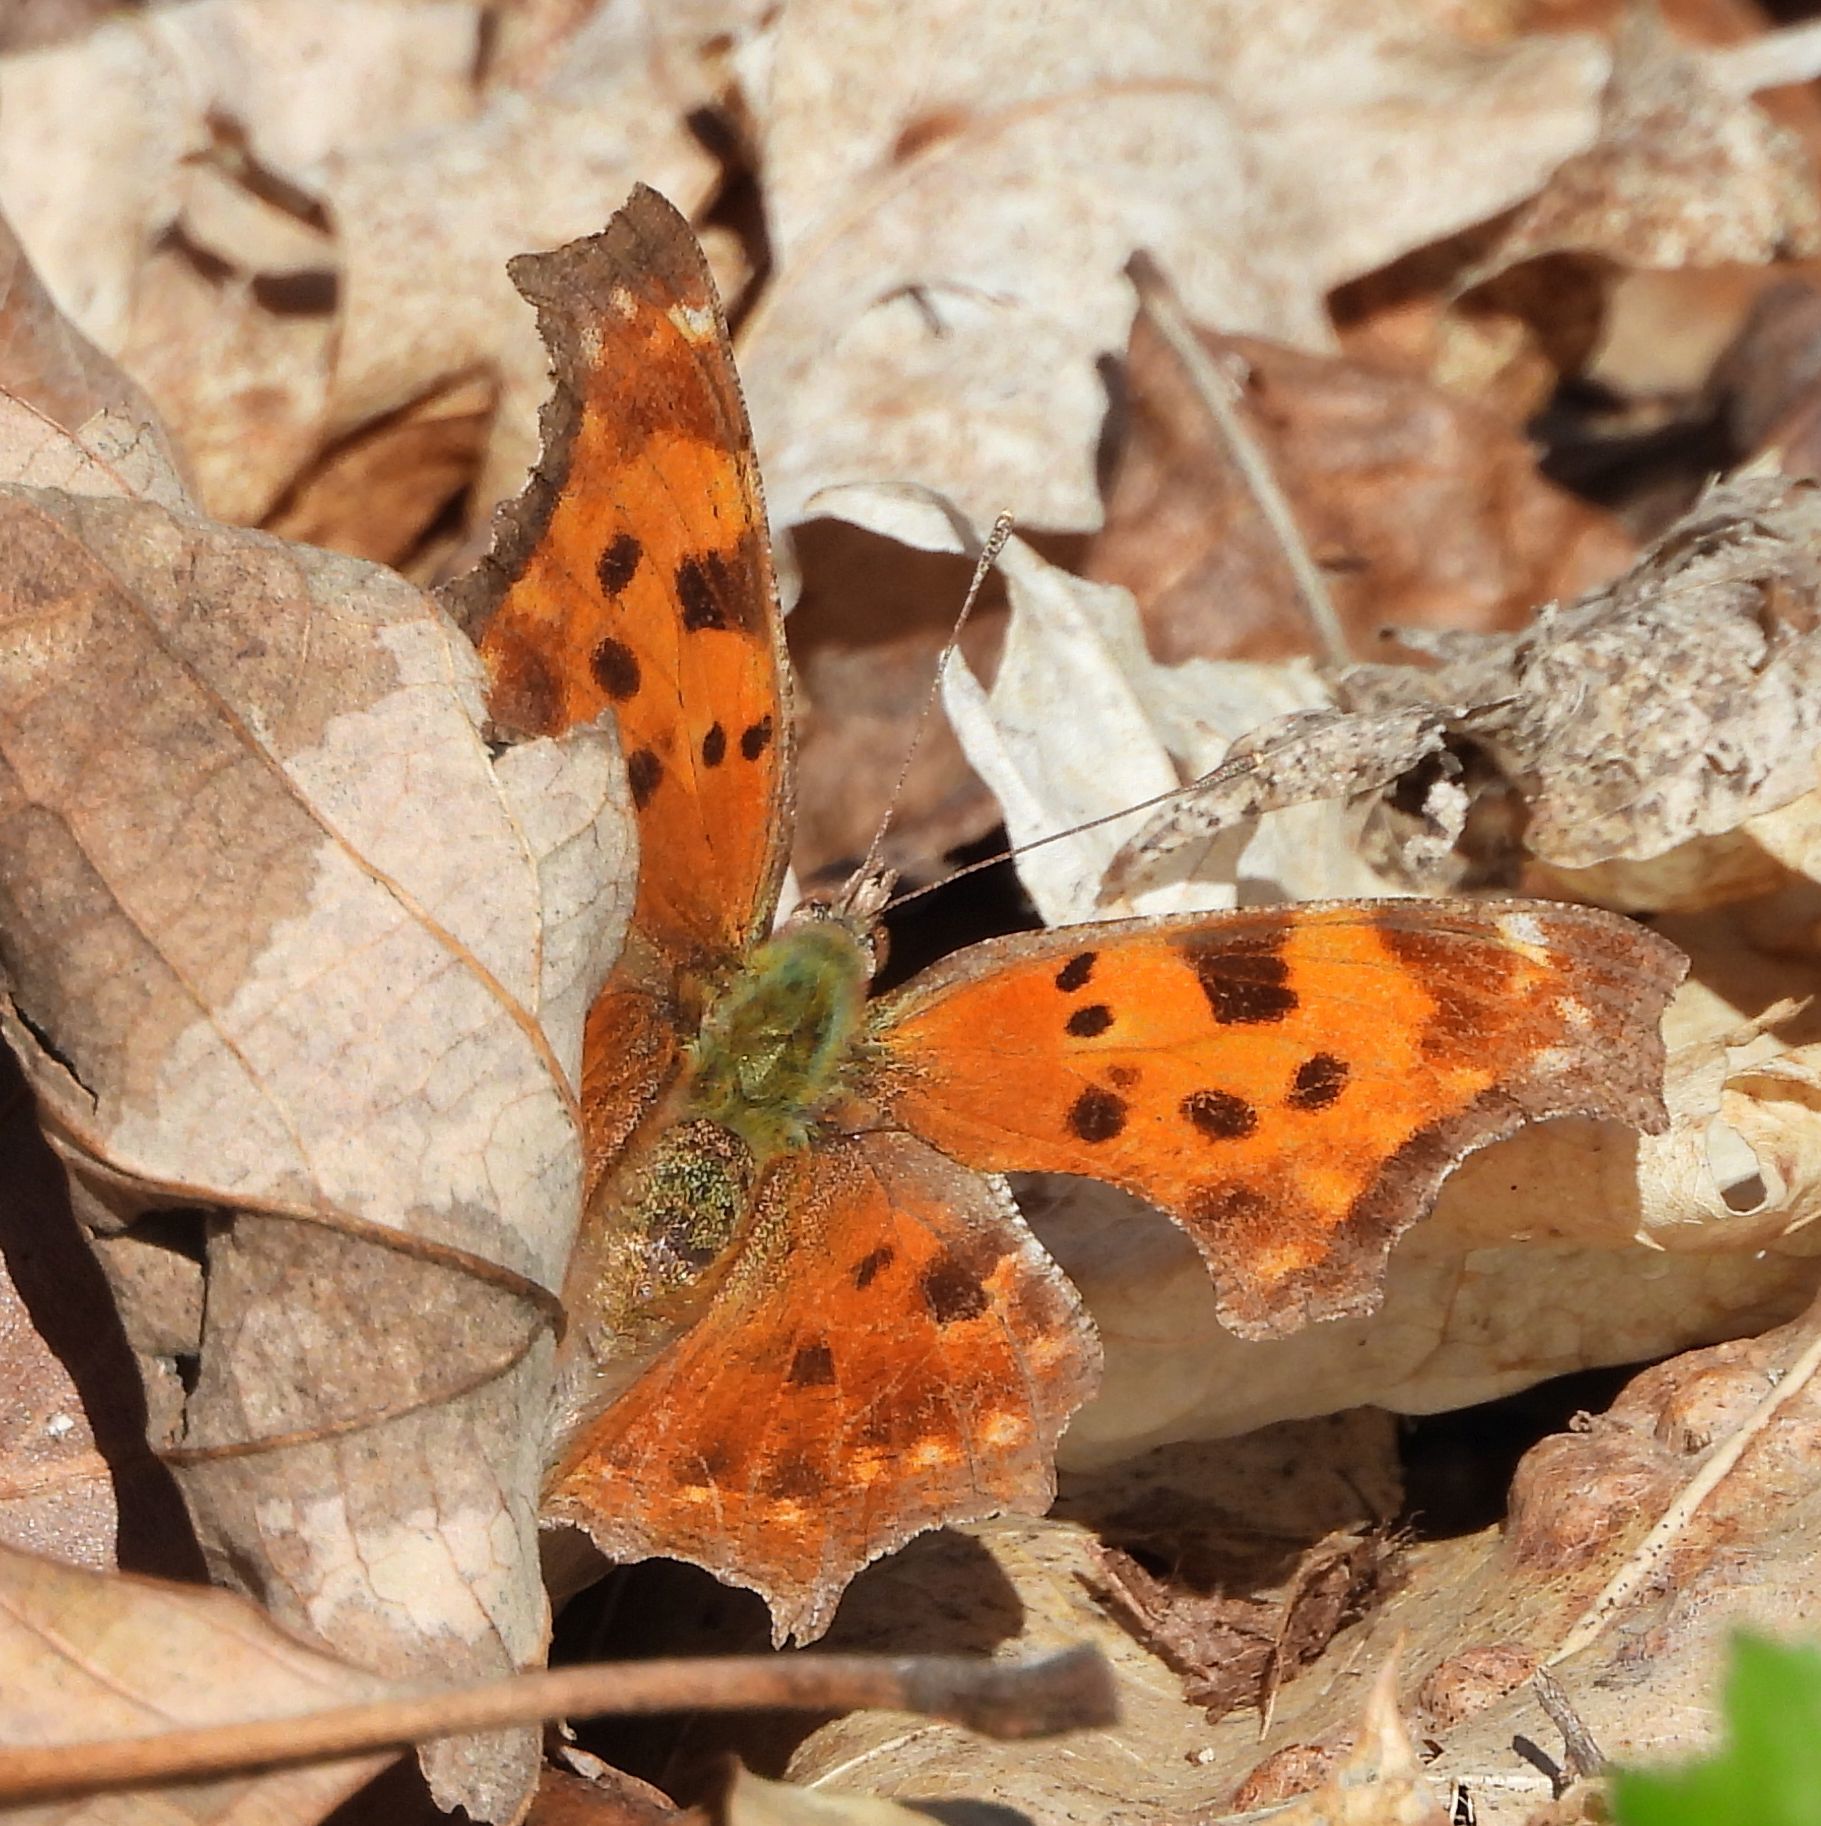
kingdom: Animalia
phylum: Arthropoda
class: Insecta
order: Lepidoptera
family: Nymphalidae
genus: Polygonia
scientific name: Polygonia comma
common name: Eastern comma
